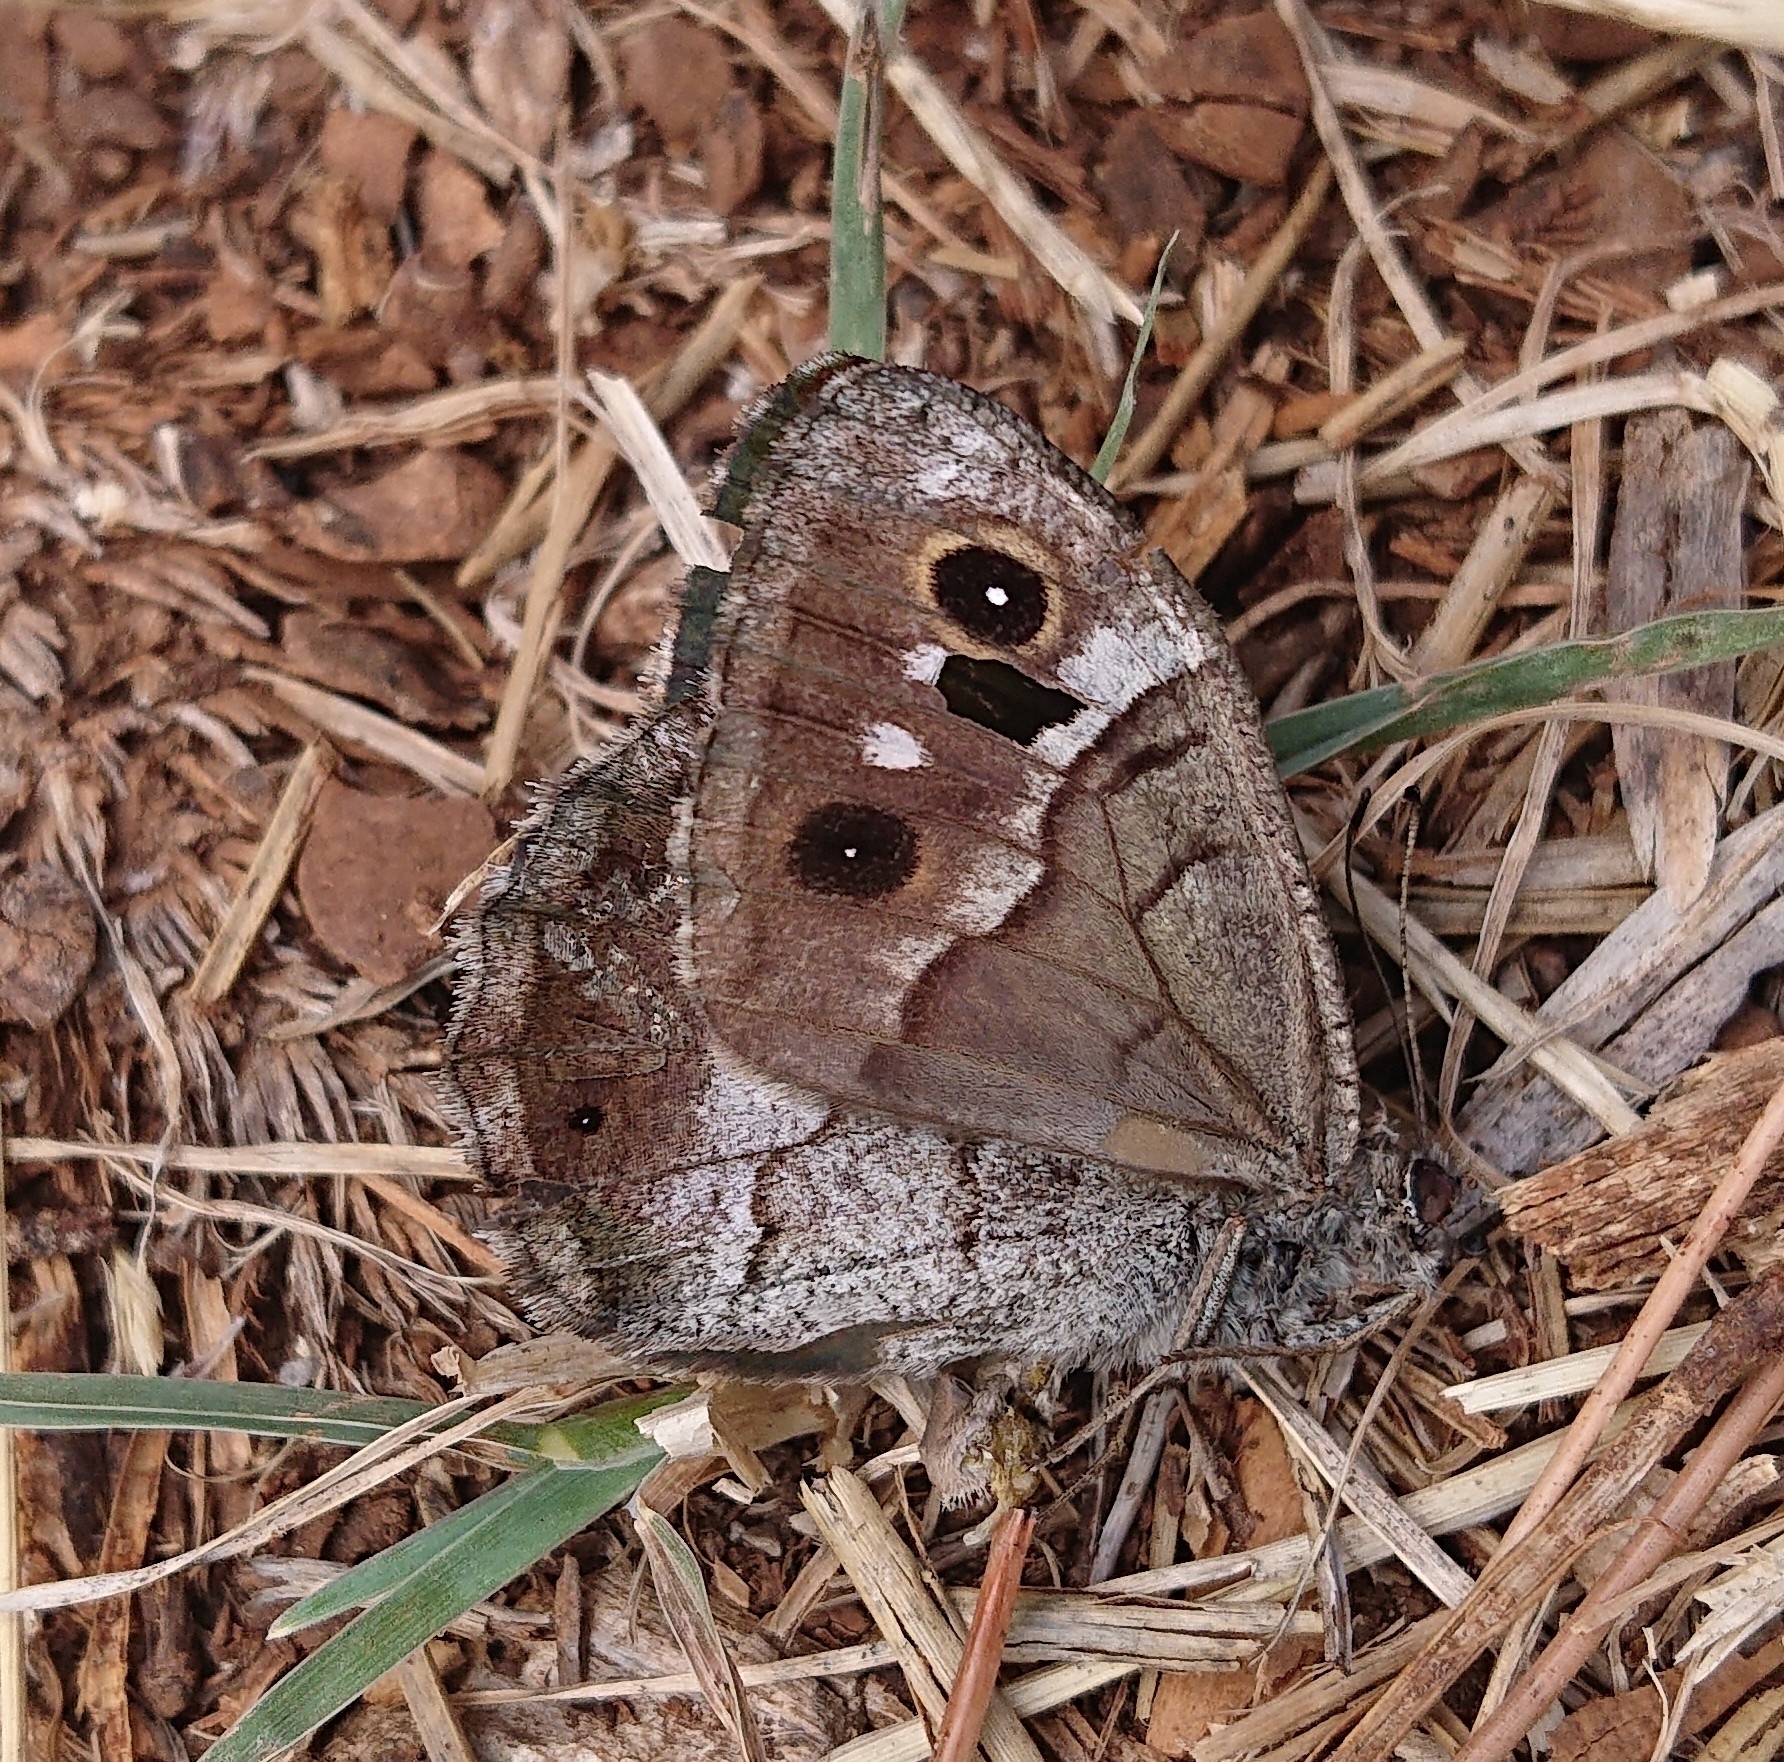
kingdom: Animalia
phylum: Arthropoda
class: Insecta
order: Lepidoptera
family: Nymphalidae
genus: Hipparchia
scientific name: Hipparchia statilinus
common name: Tree grayling
